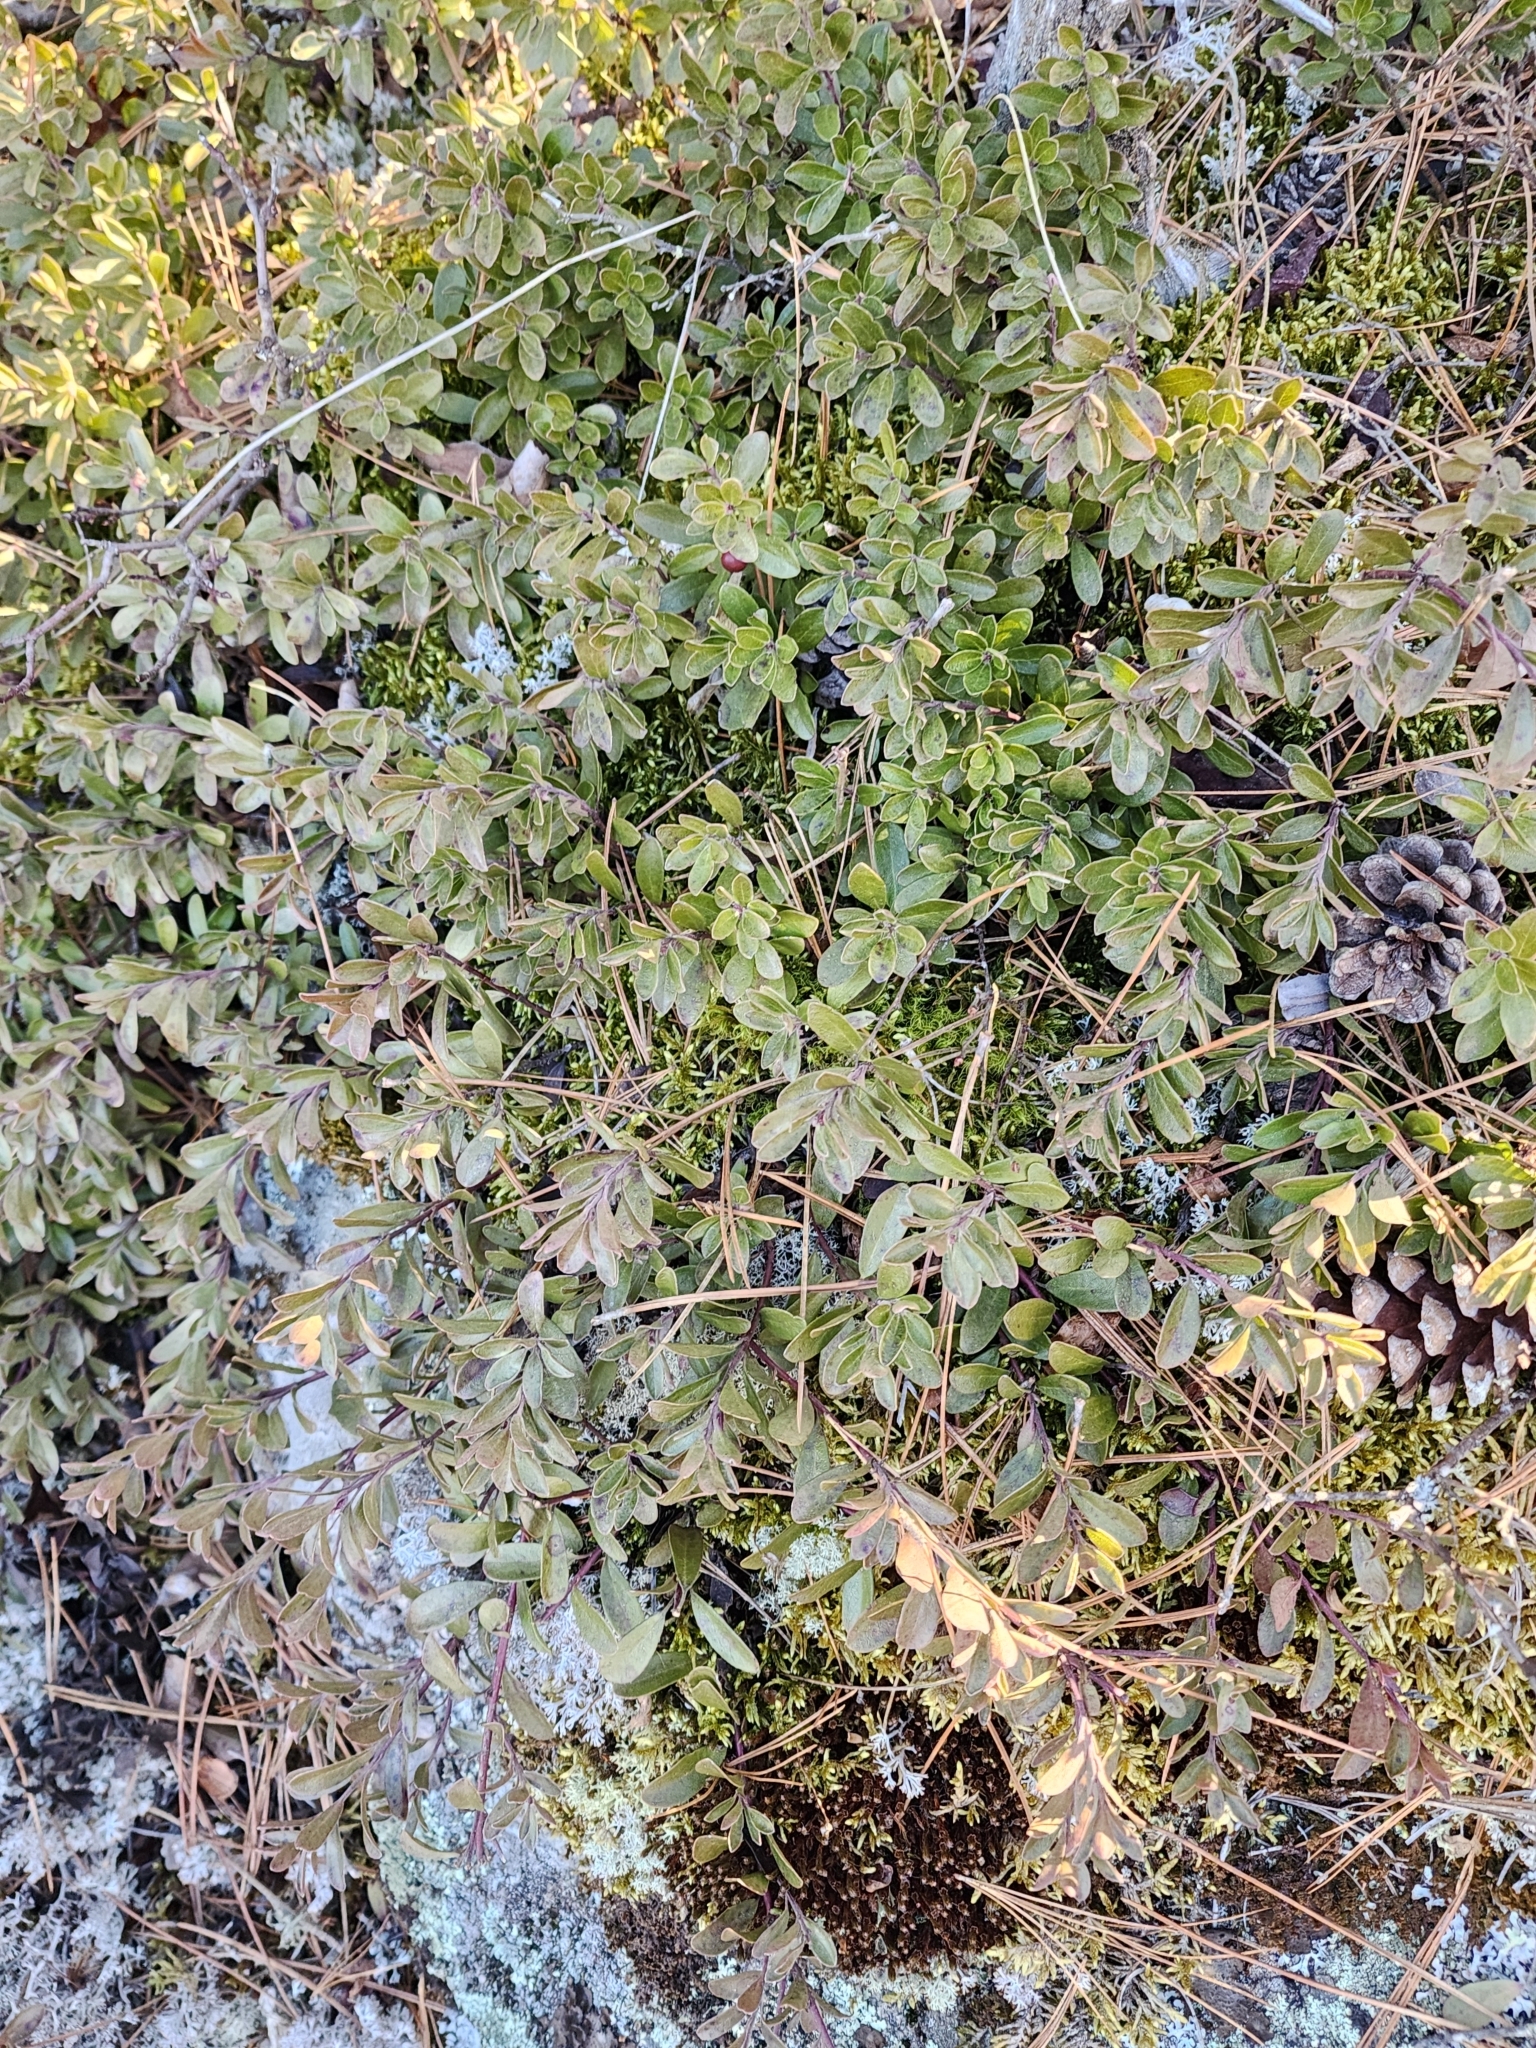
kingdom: Plantae
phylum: Tracheophyta
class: Magnoliopsida
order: Ericales
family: Ericaceae
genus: Arctostaphylos
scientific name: Arctostaphylos uva-ursi
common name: Bearberry
